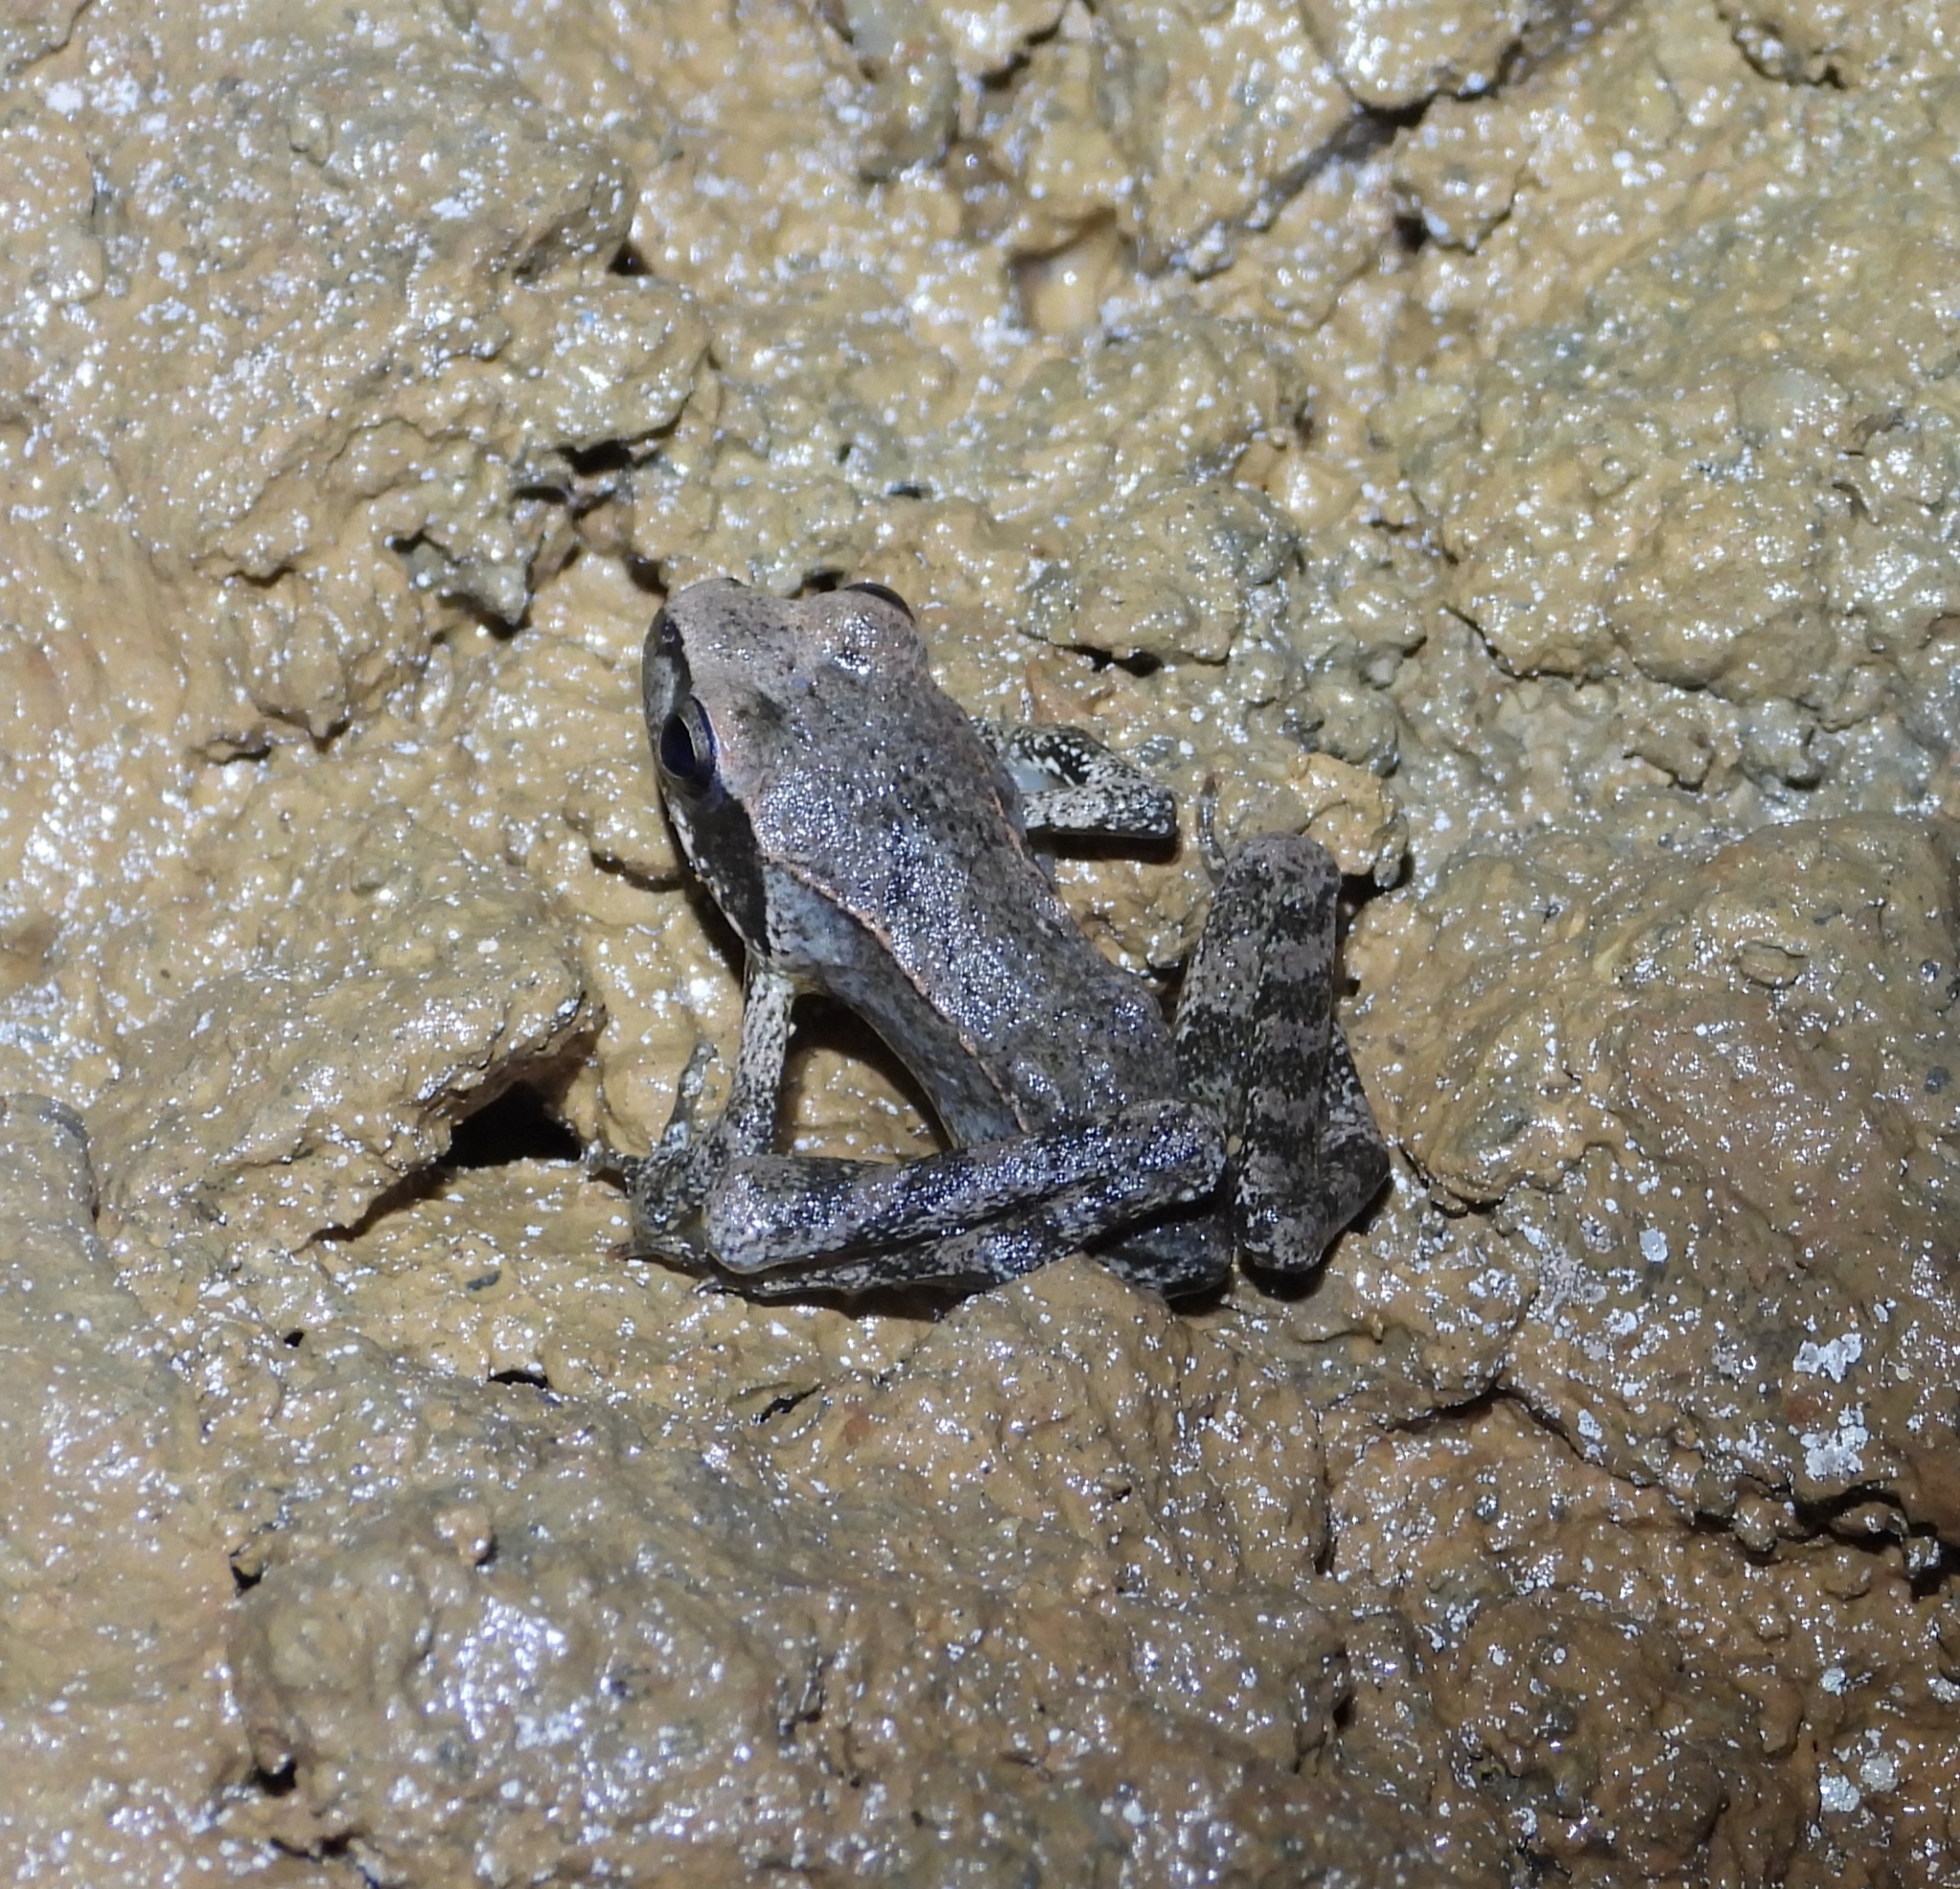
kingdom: Animalia
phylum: Chordata
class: Amphibia
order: Anura
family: Ranidae
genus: Rana
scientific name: Rana italica
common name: Italian stream frog
